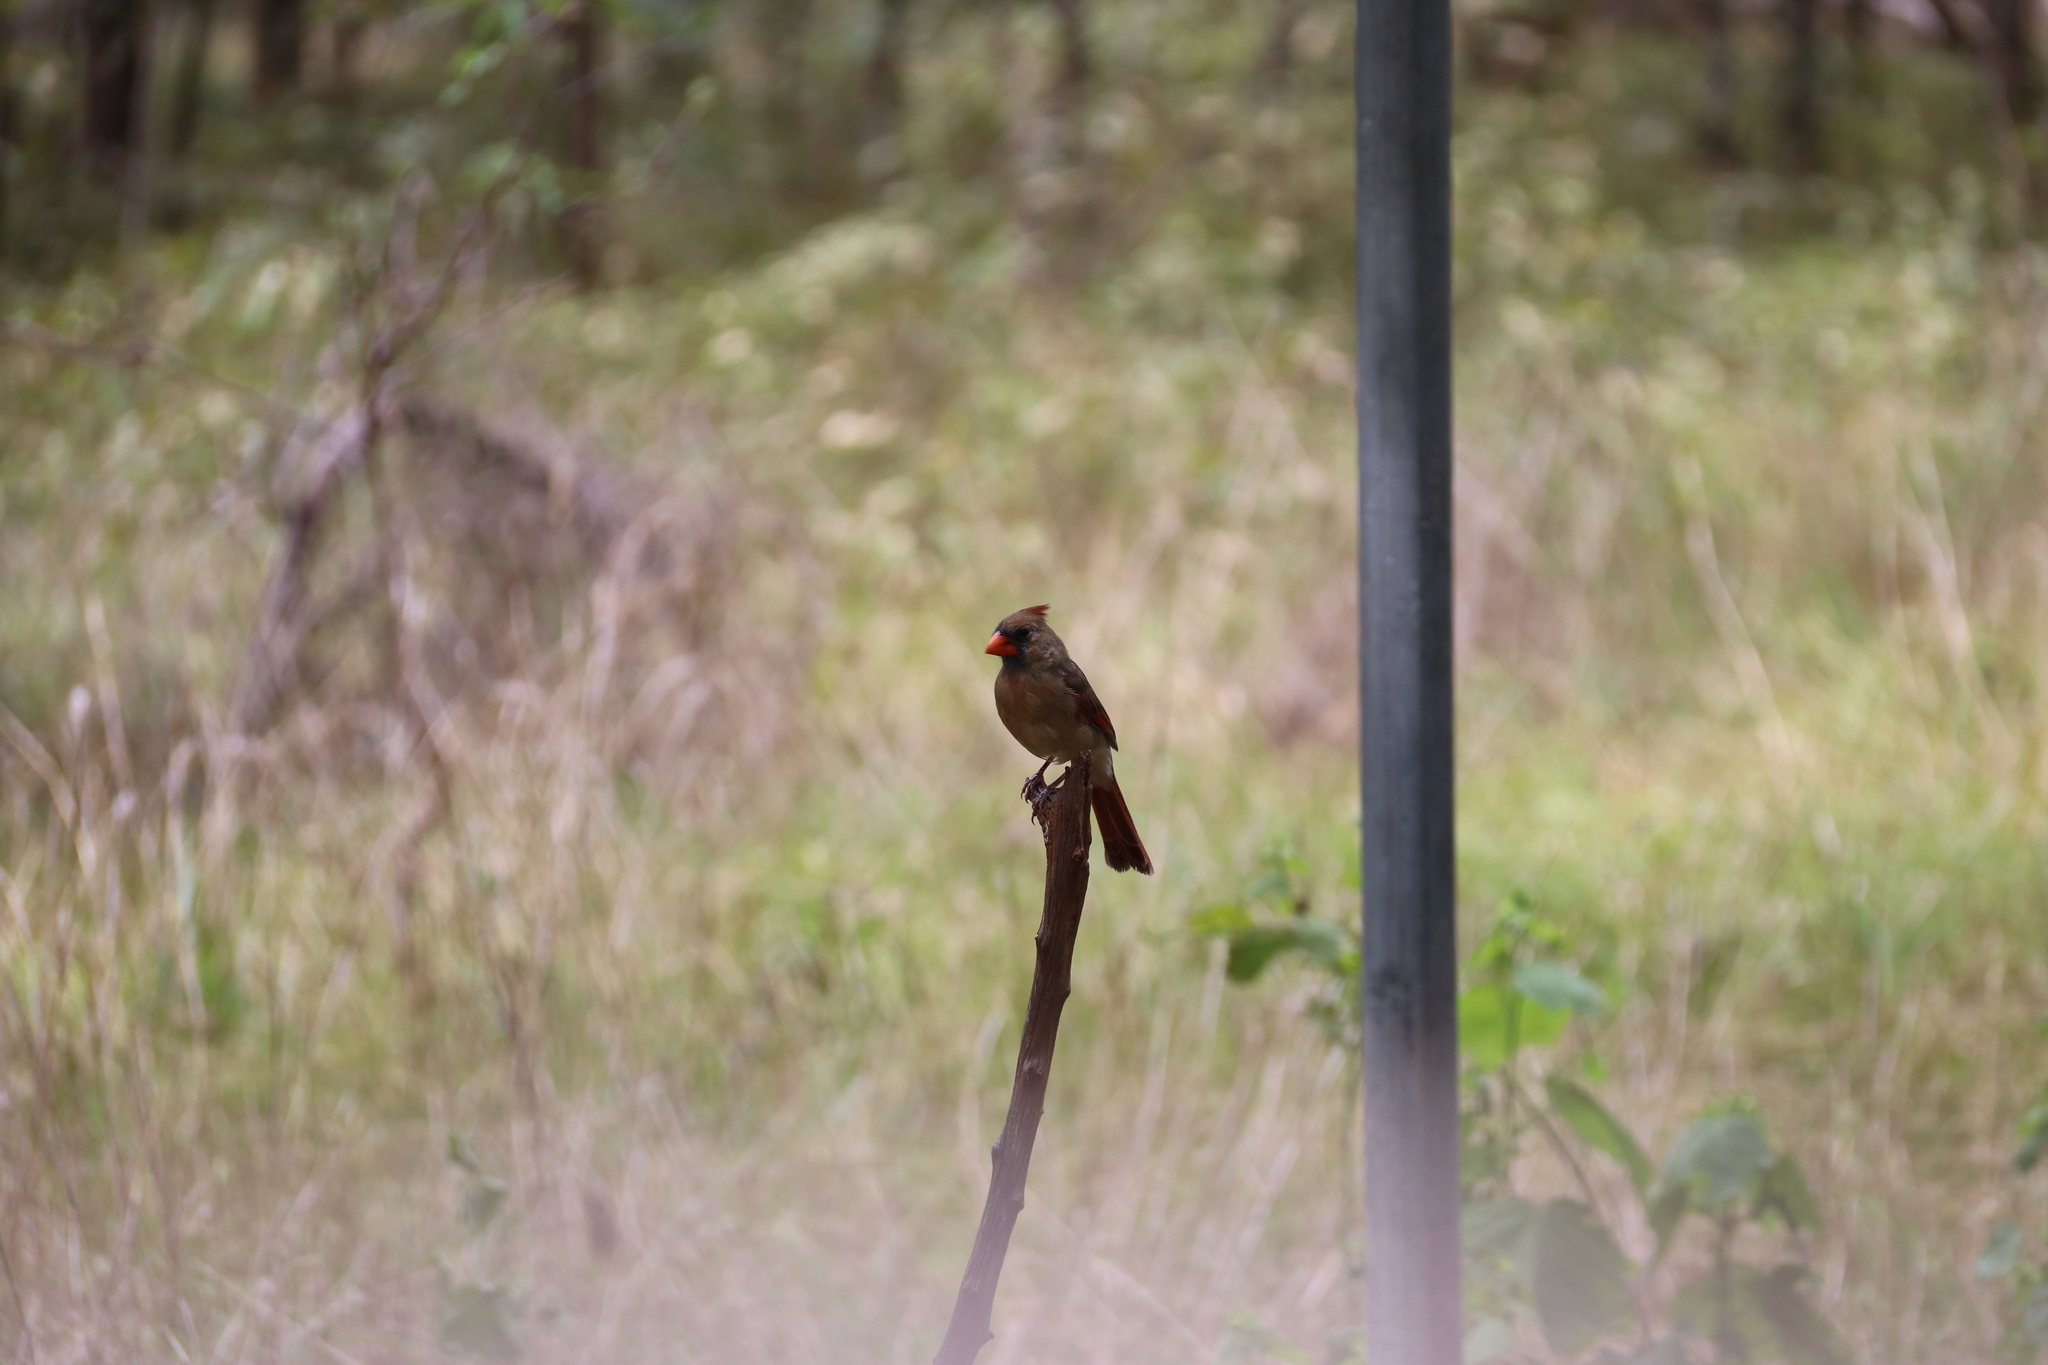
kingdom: Animalia
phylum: Chordata
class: Aves
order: Passeriformes
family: Cardinalidae
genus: Cardinalis
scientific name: Cardinalis cardinalis
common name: Northern cardinal
